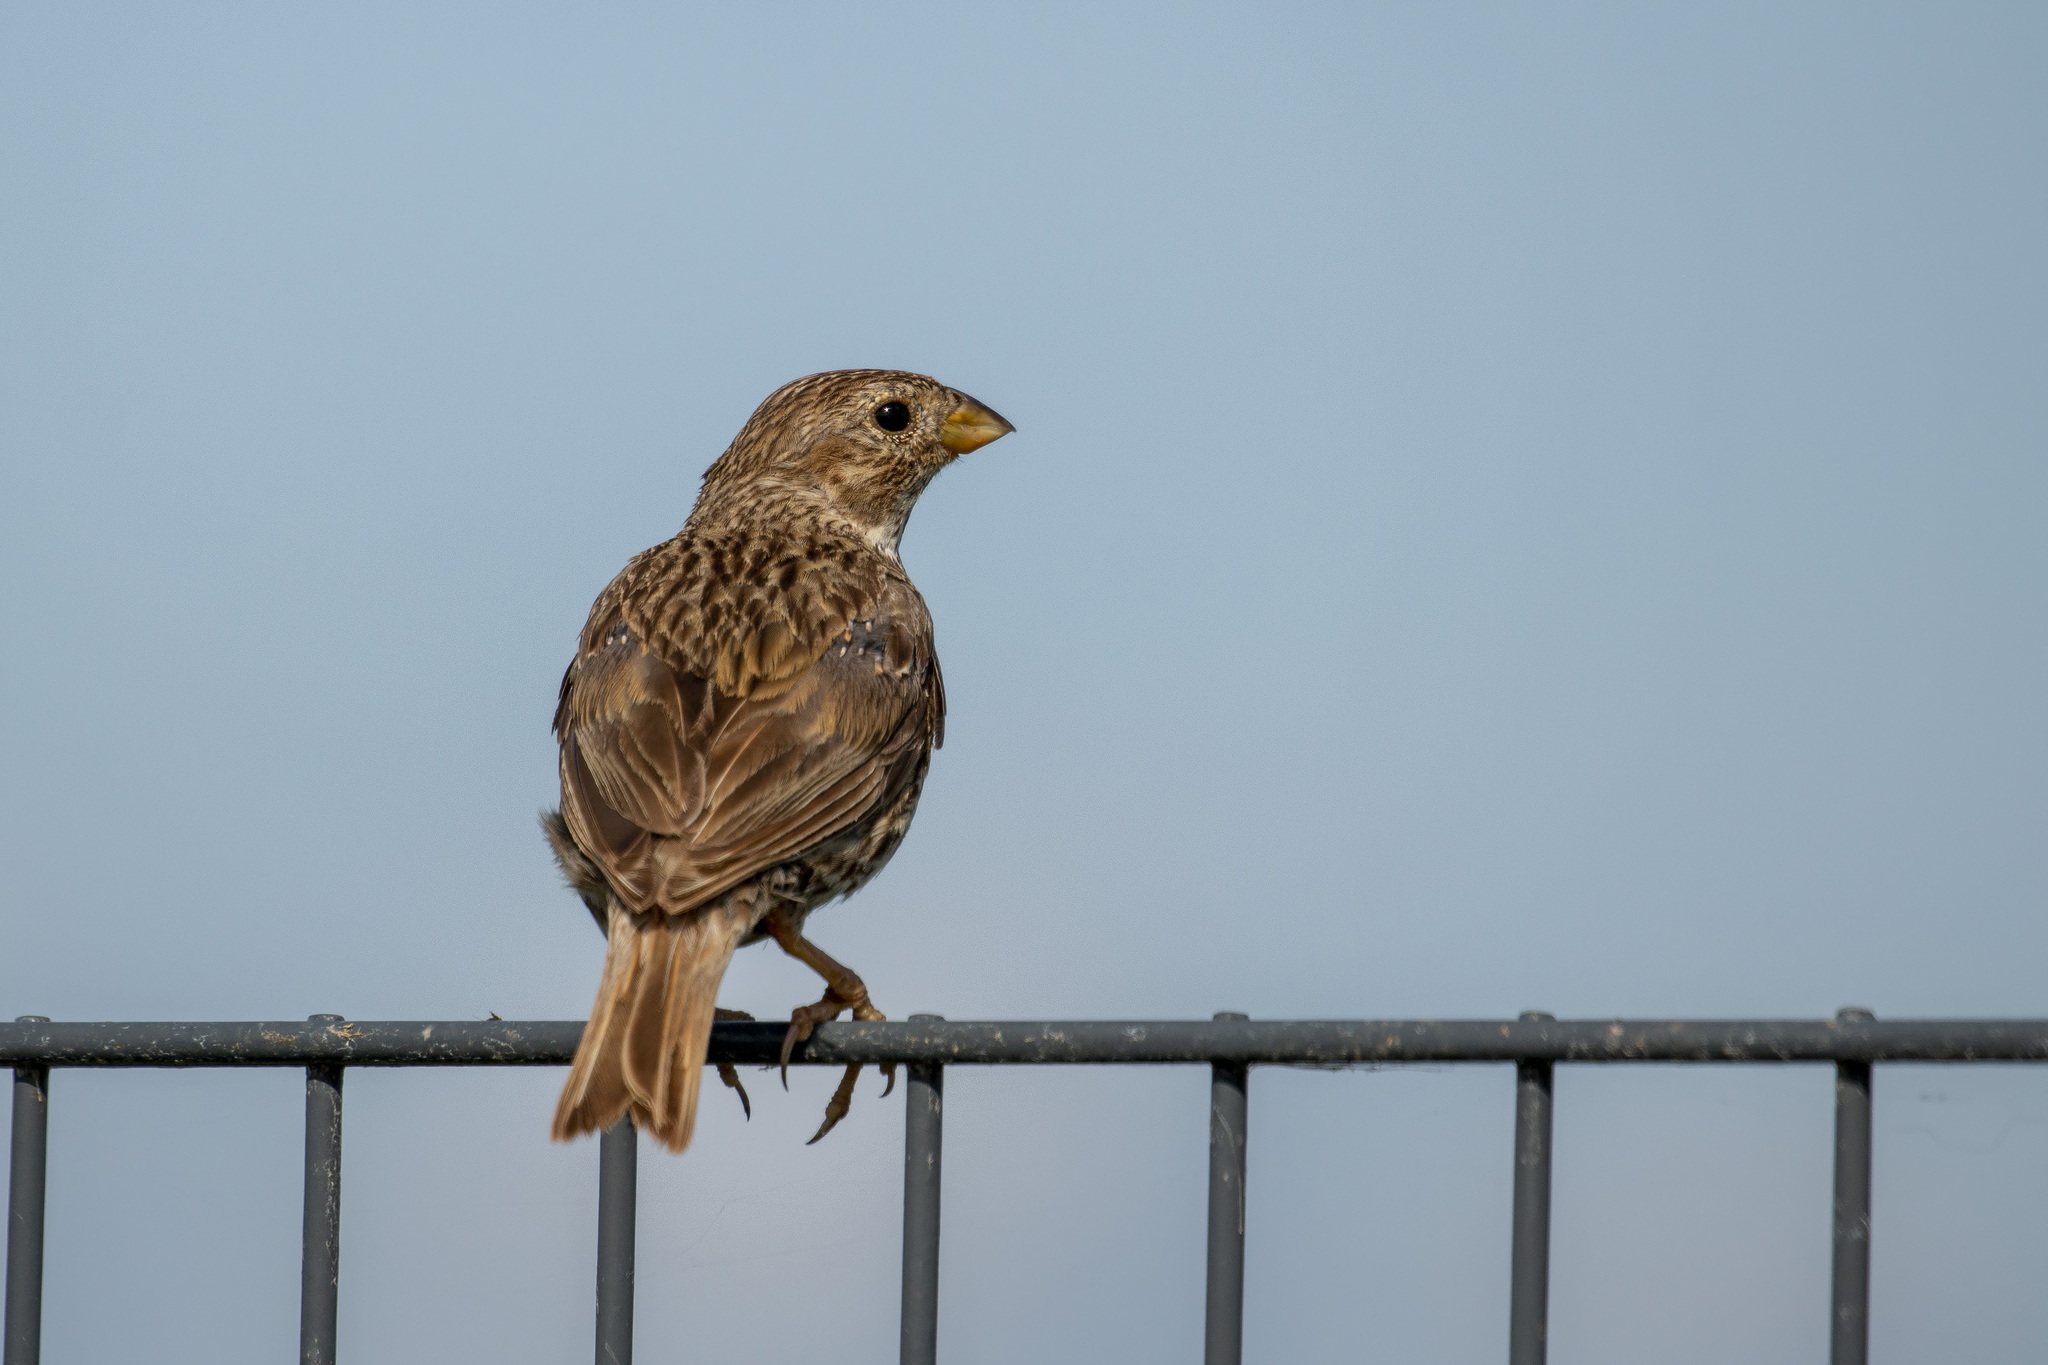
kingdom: Animalia
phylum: Chordata
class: Aves
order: Passeriformes
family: Emberizidae
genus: Emberiza
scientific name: Emberiza calandra
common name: Corn bunting
